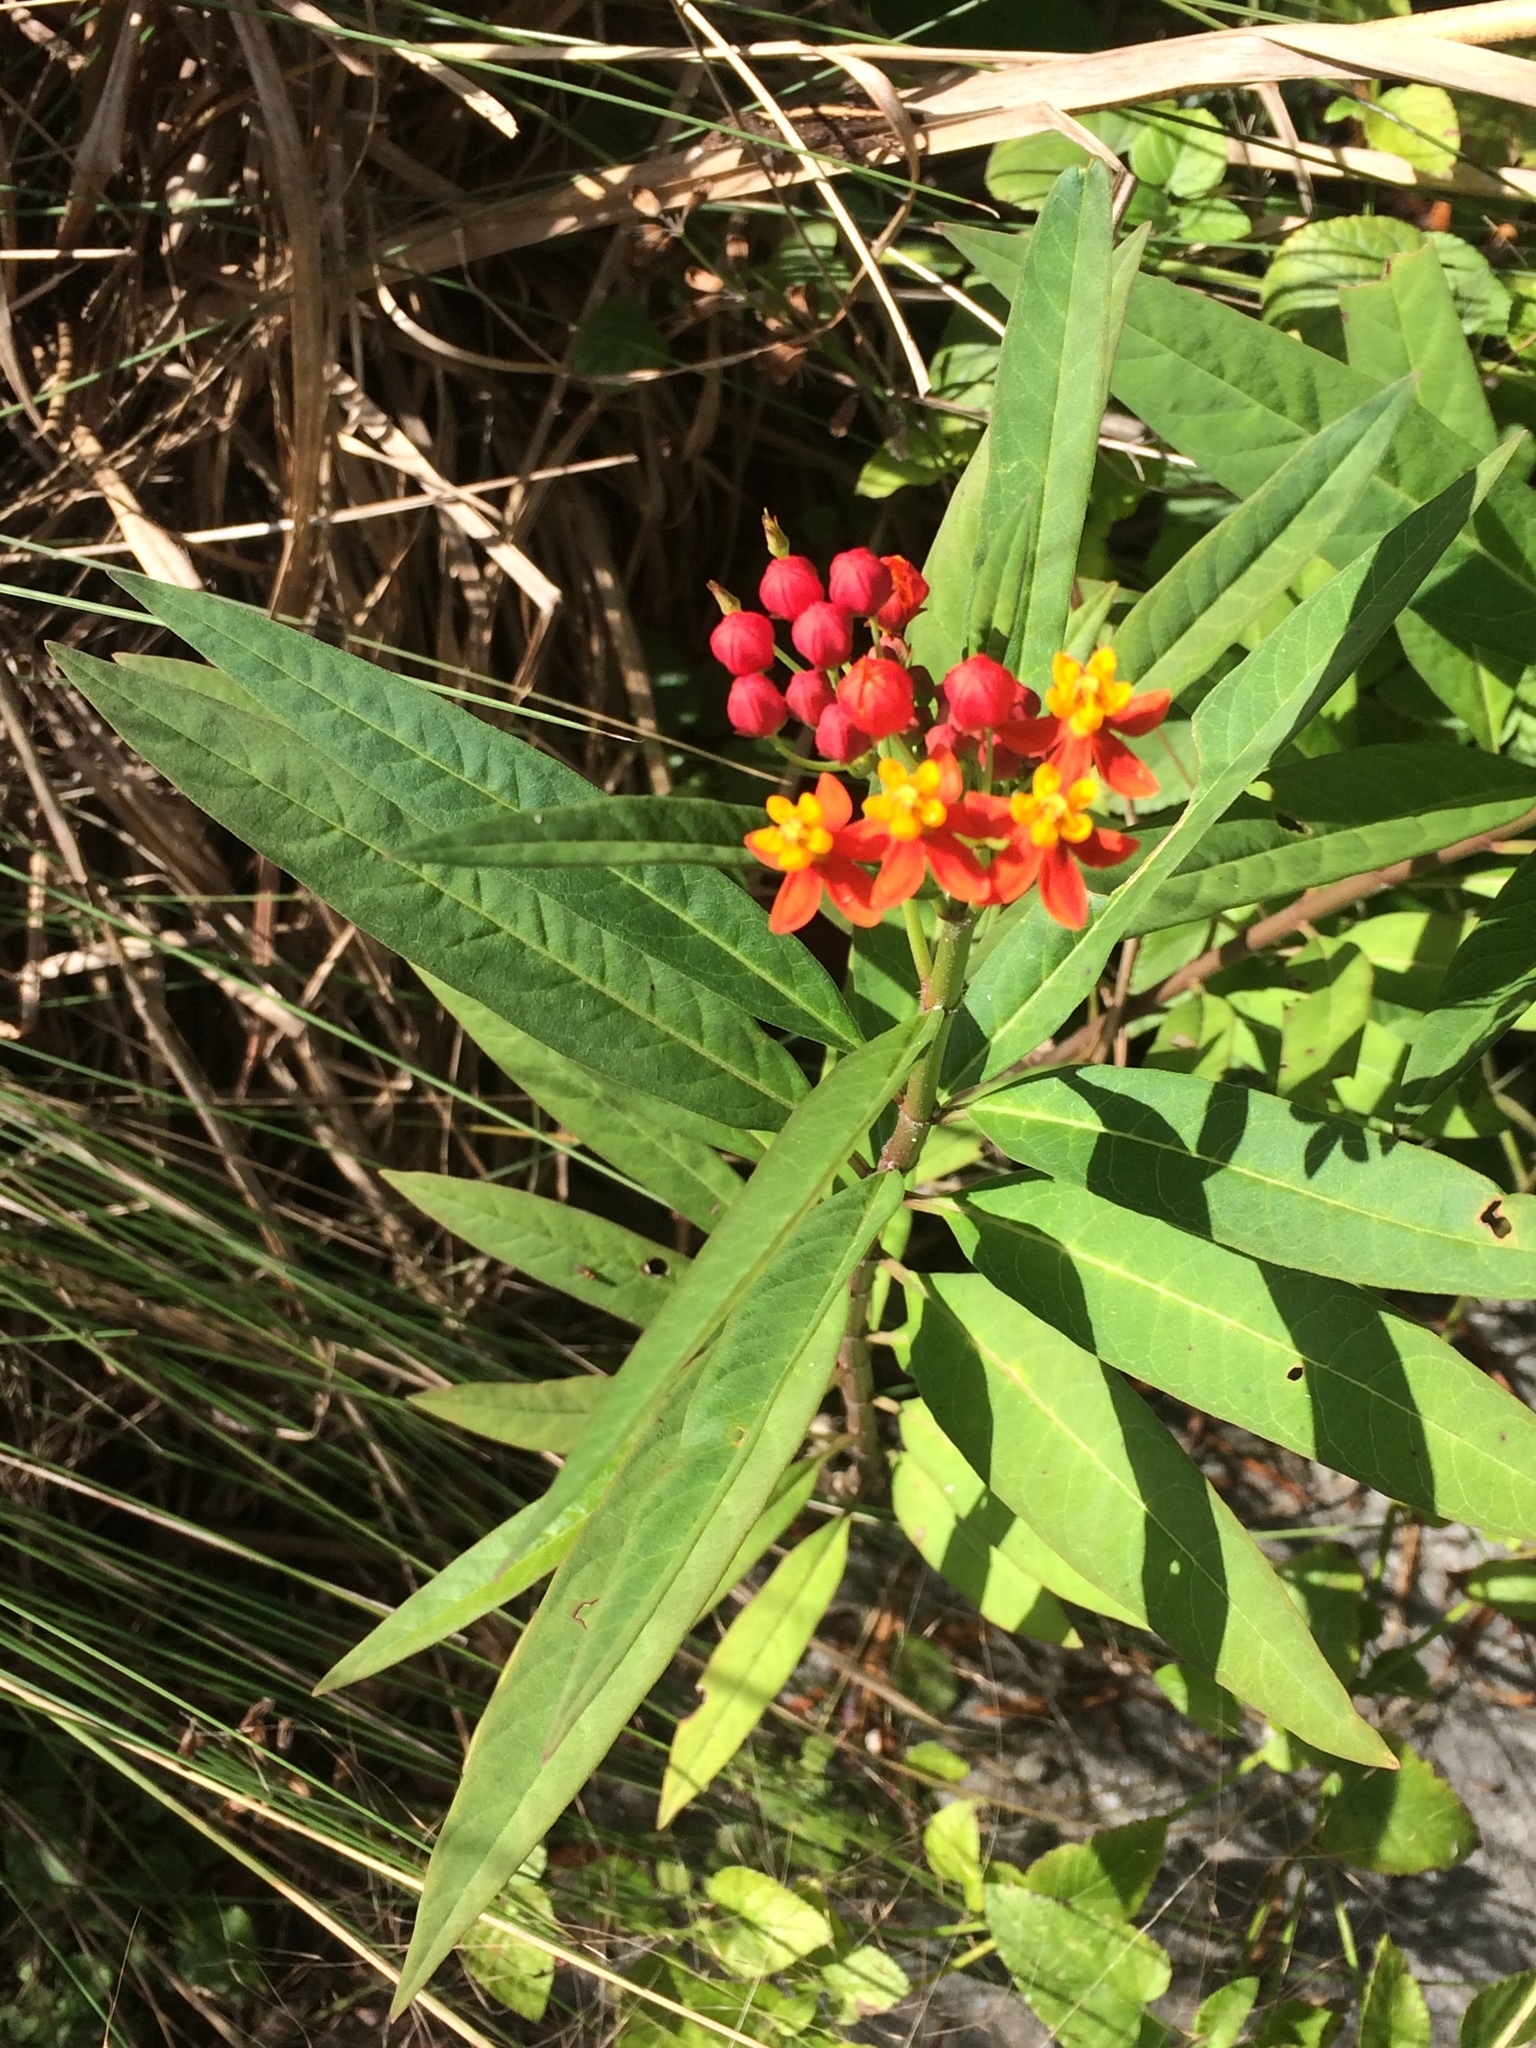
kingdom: Plantae
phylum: Tracheophyta
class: Magnoliopsida
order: Gentianales
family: Apocynaceae
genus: Asclepias
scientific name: Asclepias curassavica
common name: Bloodflower
